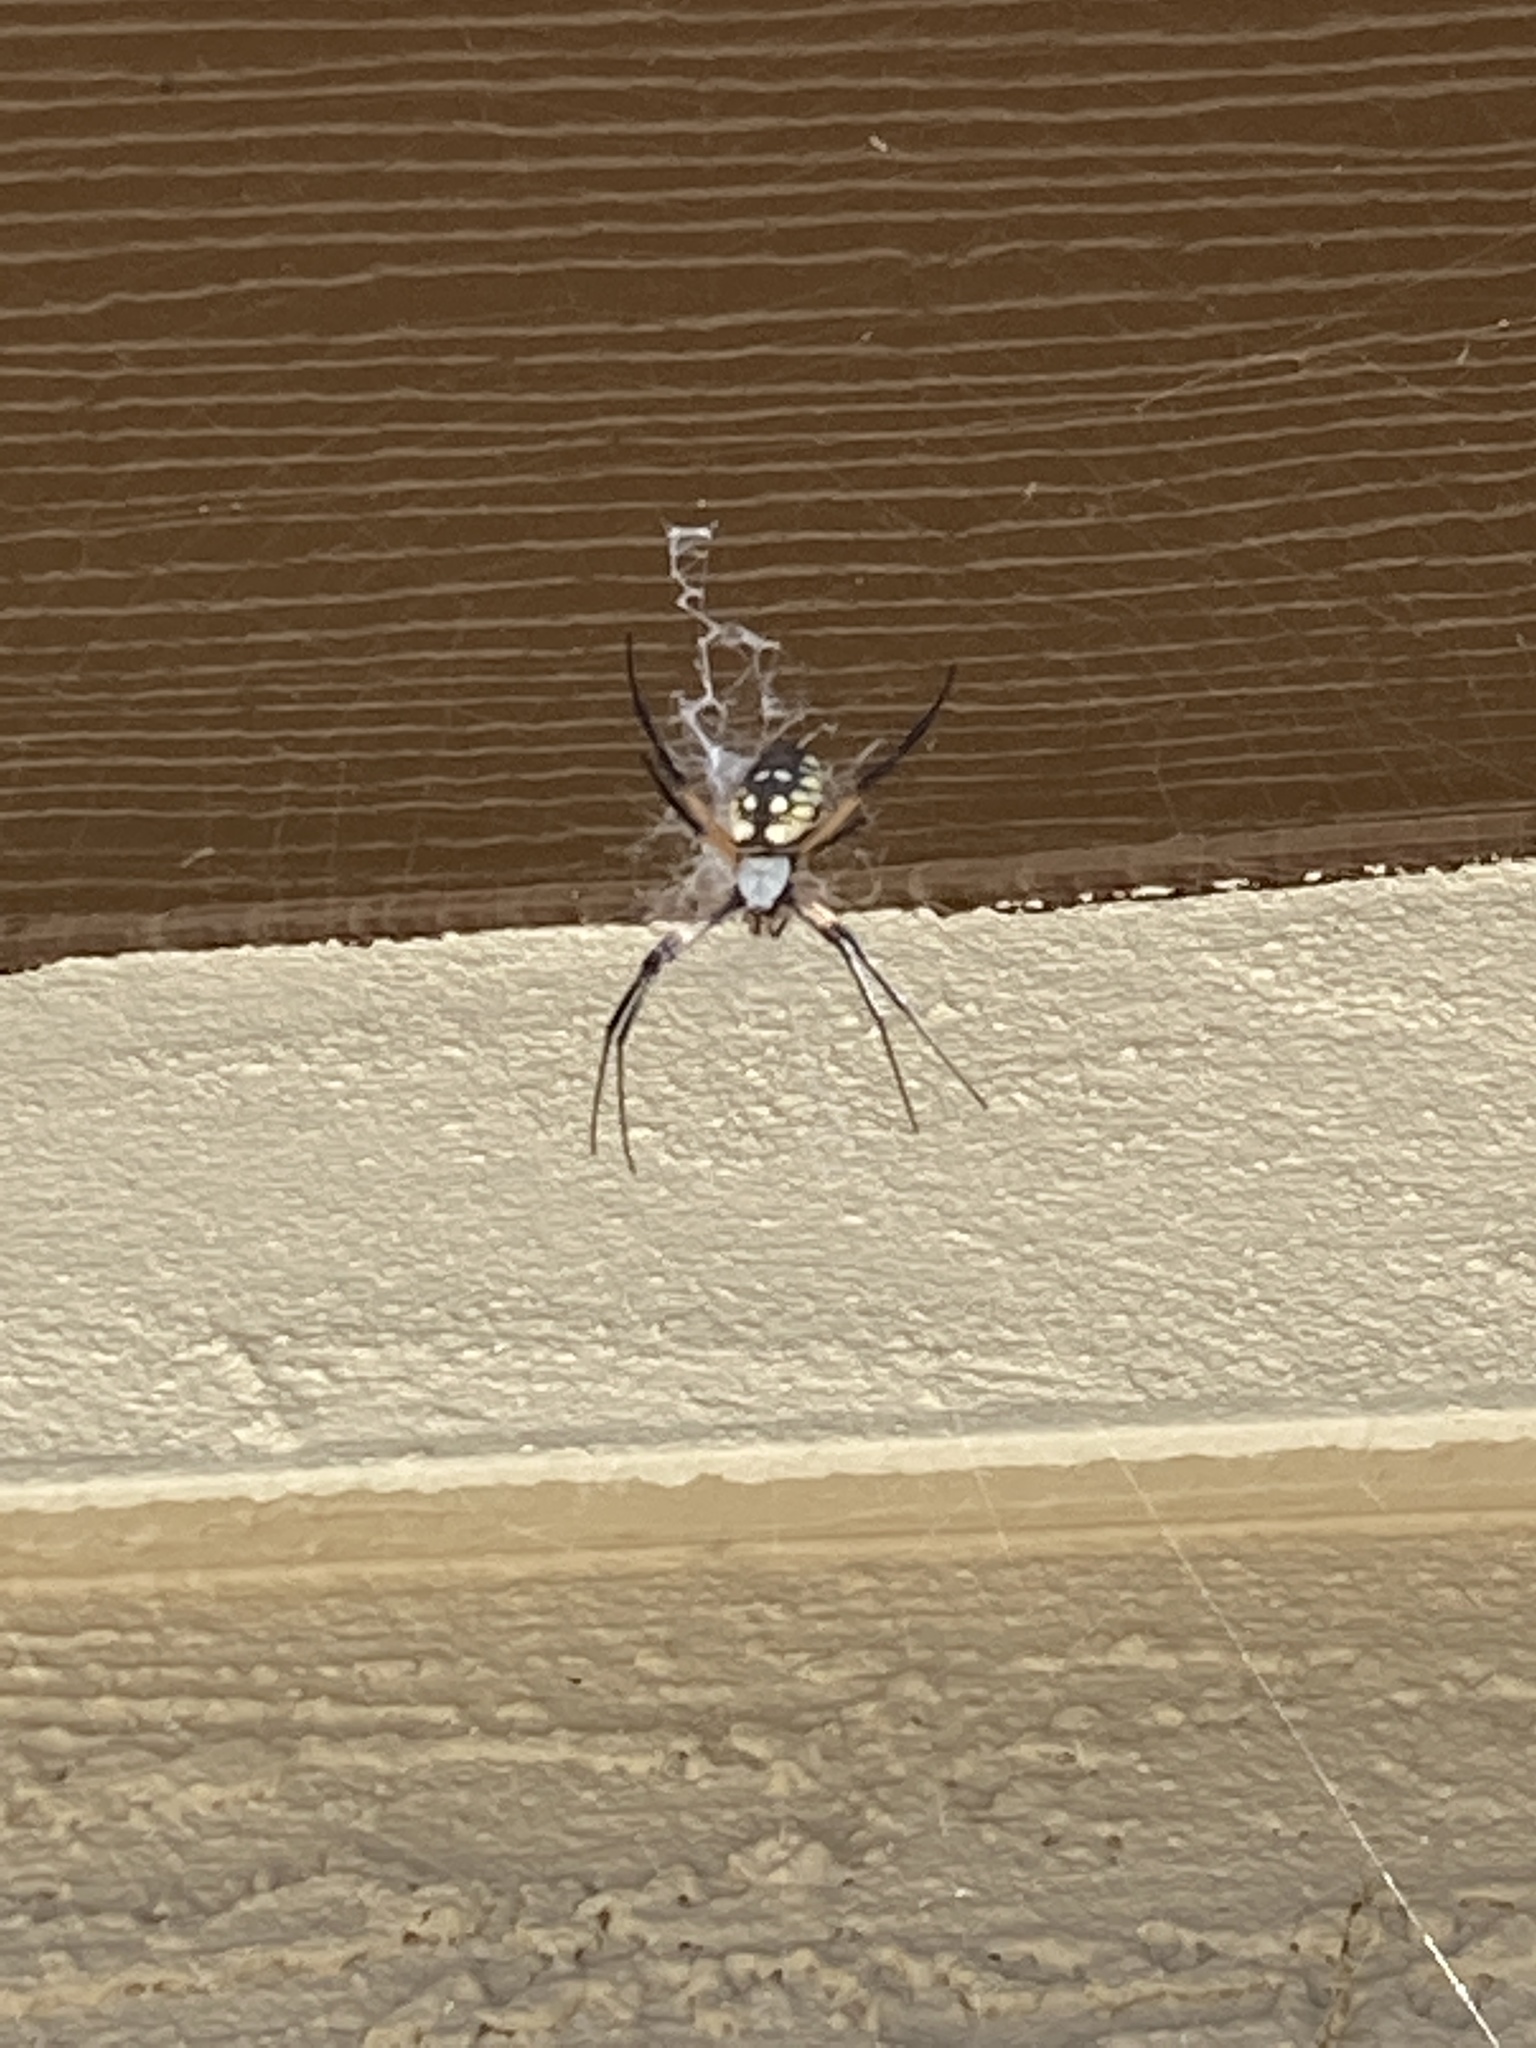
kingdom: Animalia
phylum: Arthropoda
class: Arachnida
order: Araneae
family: Araneidae
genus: Argiope
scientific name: Argiope aurantia
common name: Orb weavers
